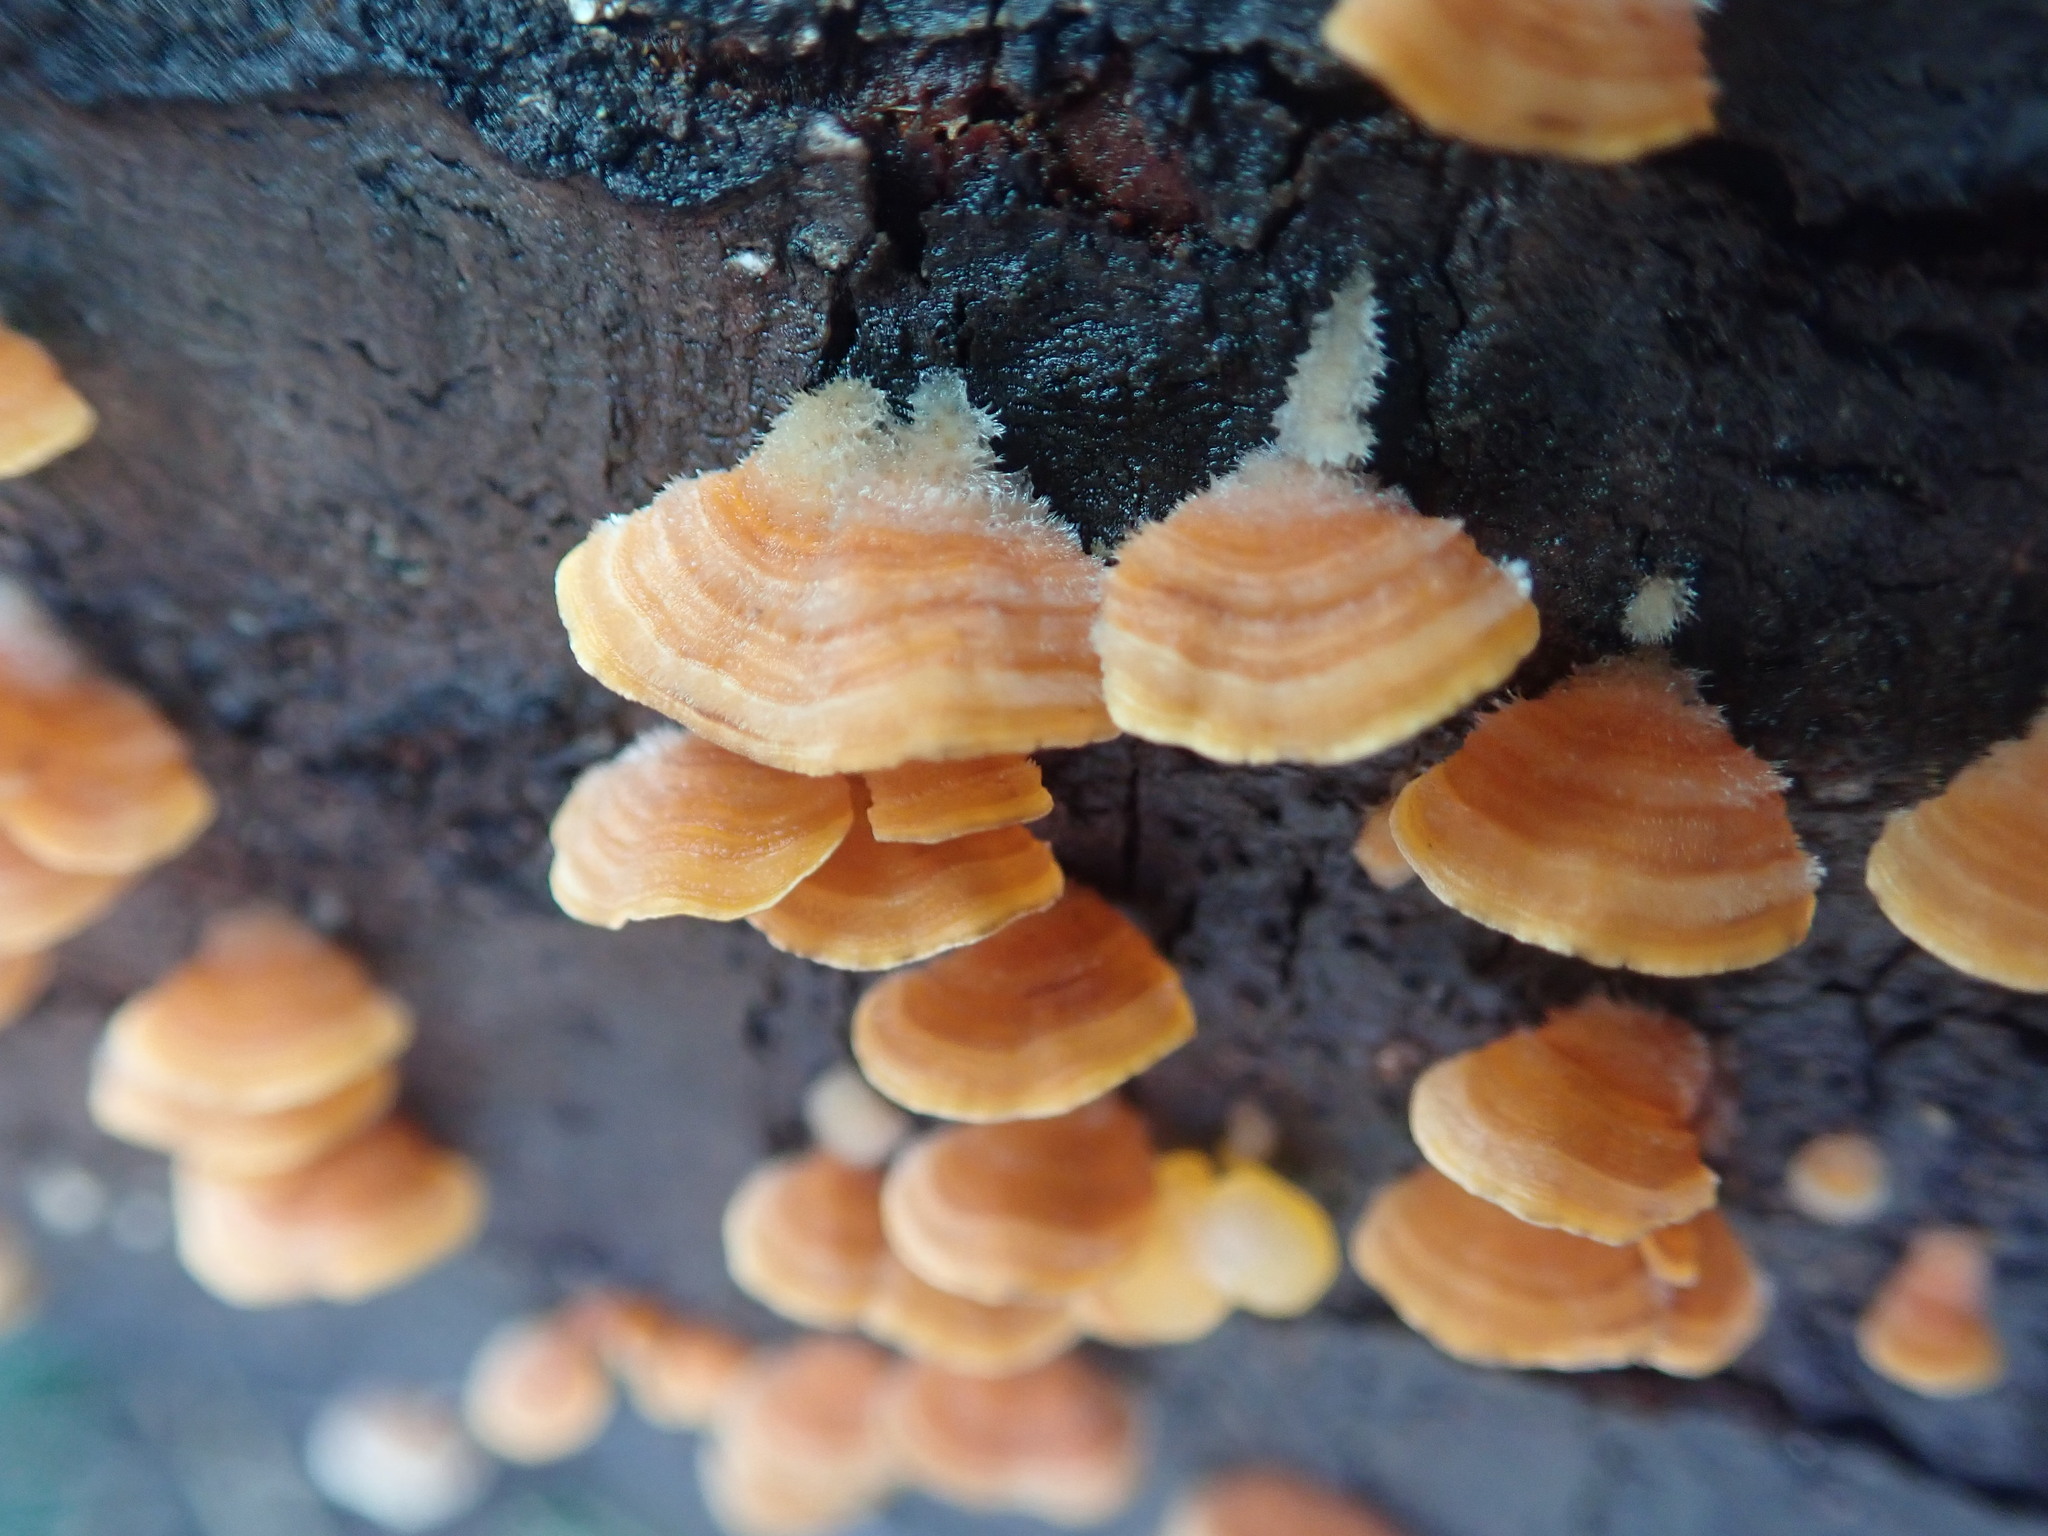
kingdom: Fungi
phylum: Basidiomycota
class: Agaricomycetes
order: Russulales
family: Stereaceae
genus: Stereum
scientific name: Stereum hirsutum
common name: Hairy curtain crust
